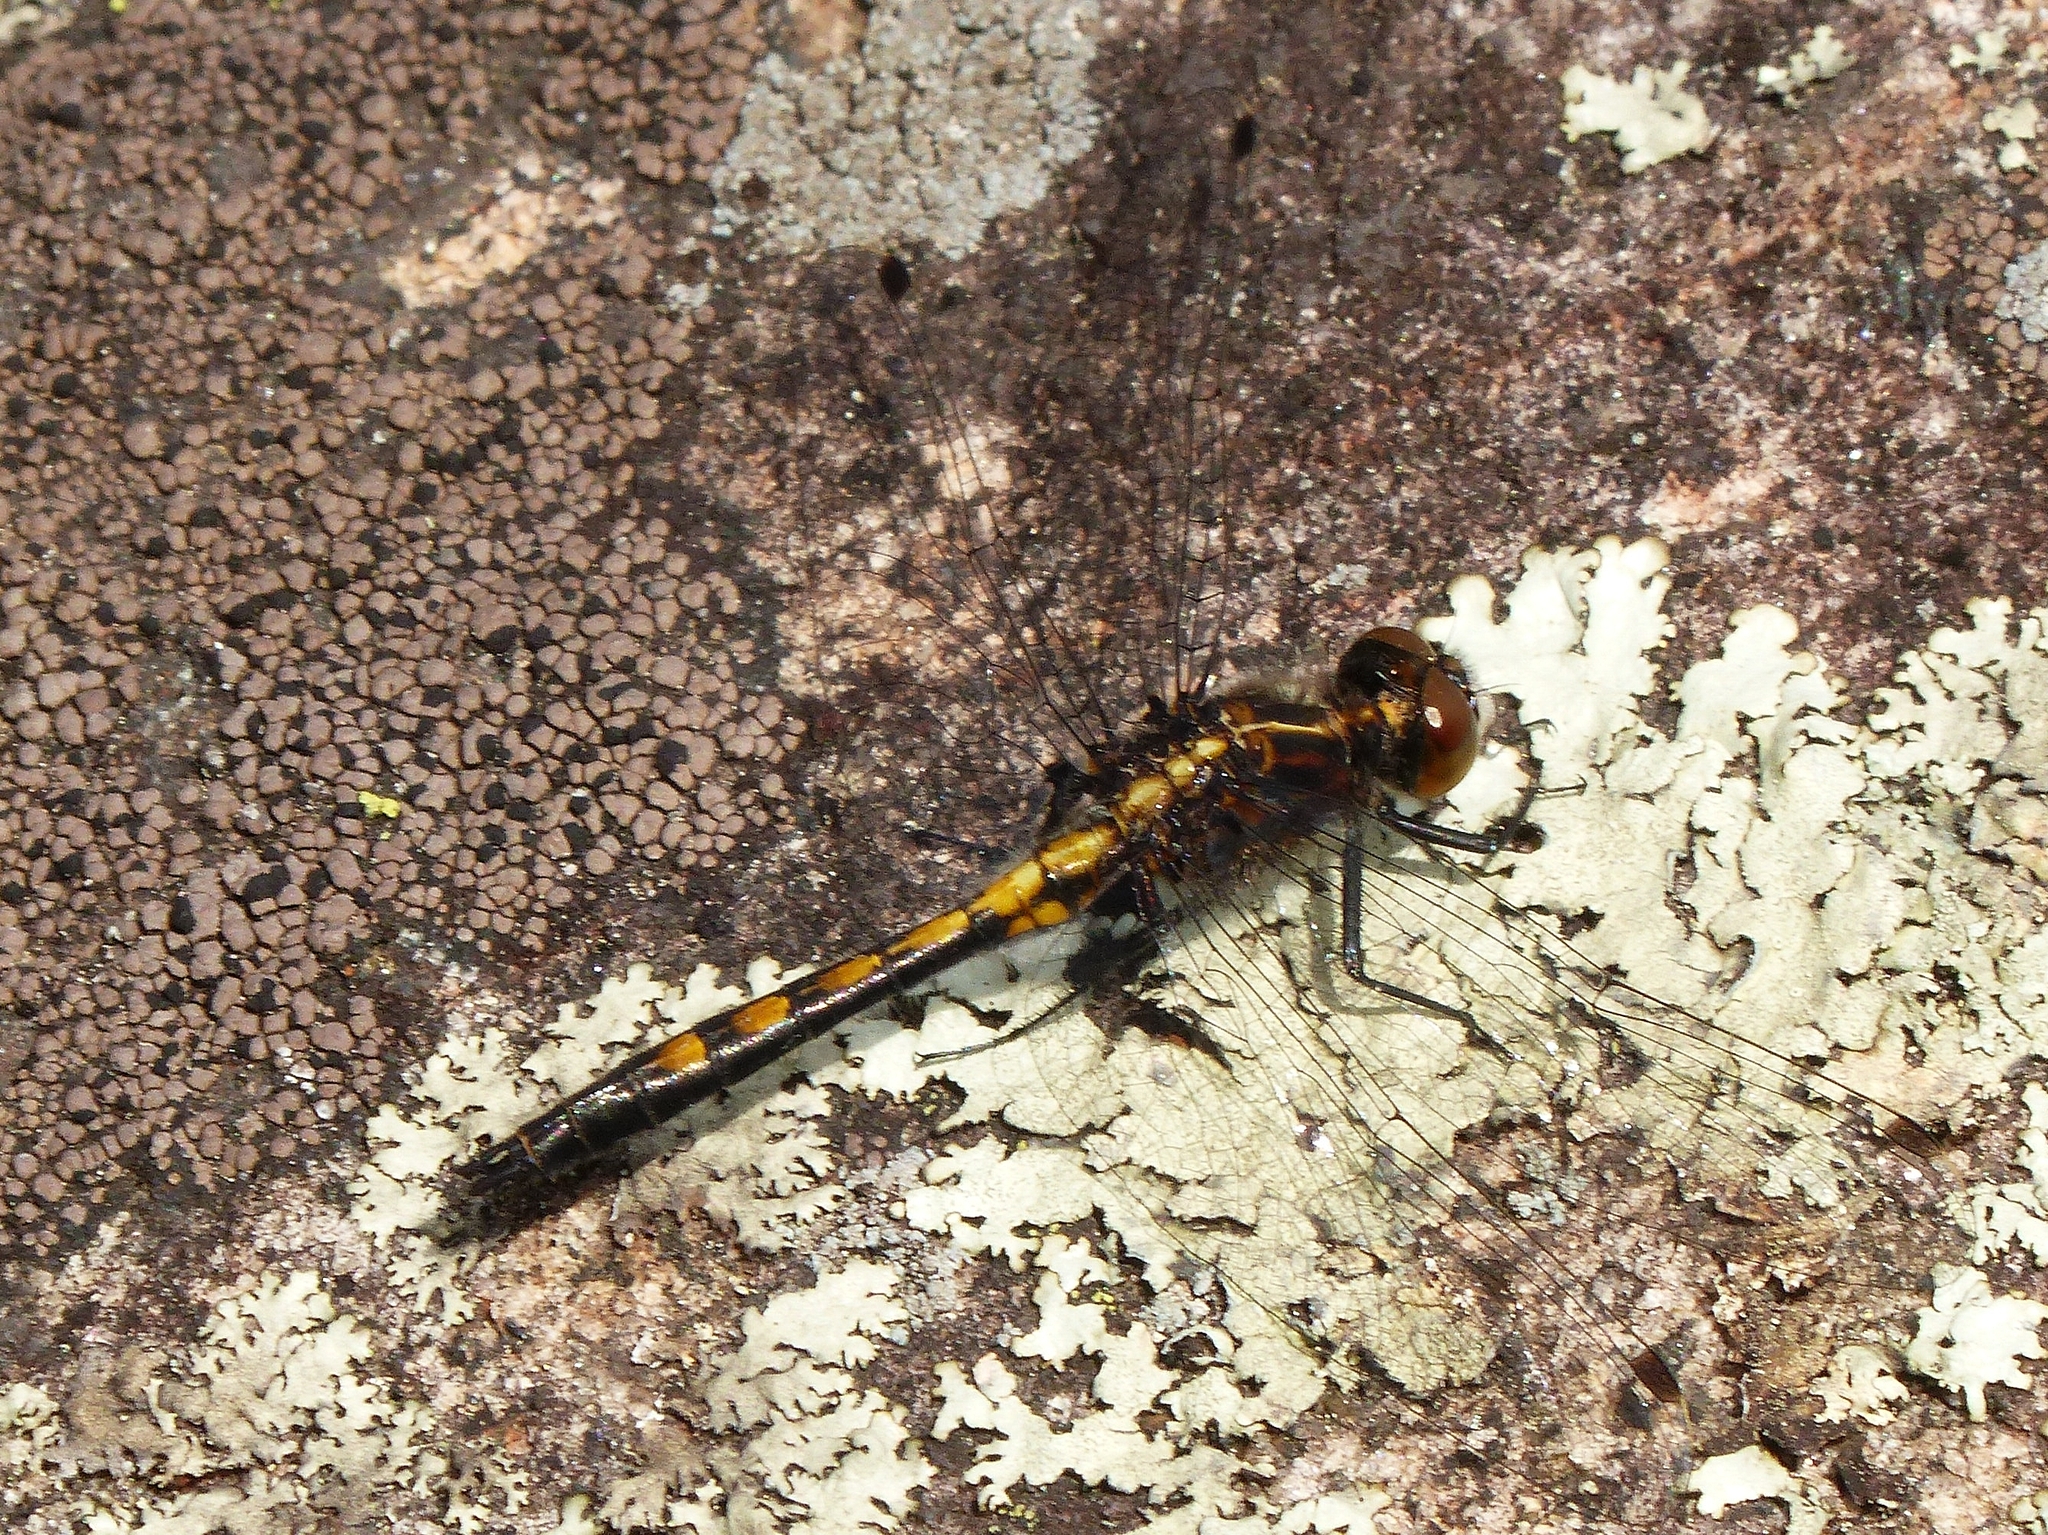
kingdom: Animalia
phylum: Arthropoda
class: Insecta
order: Odonata
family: Libellulidae
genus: Leucorrhinia
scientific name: Leucorrhinia intacta
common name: Dot-tailed whiteface
